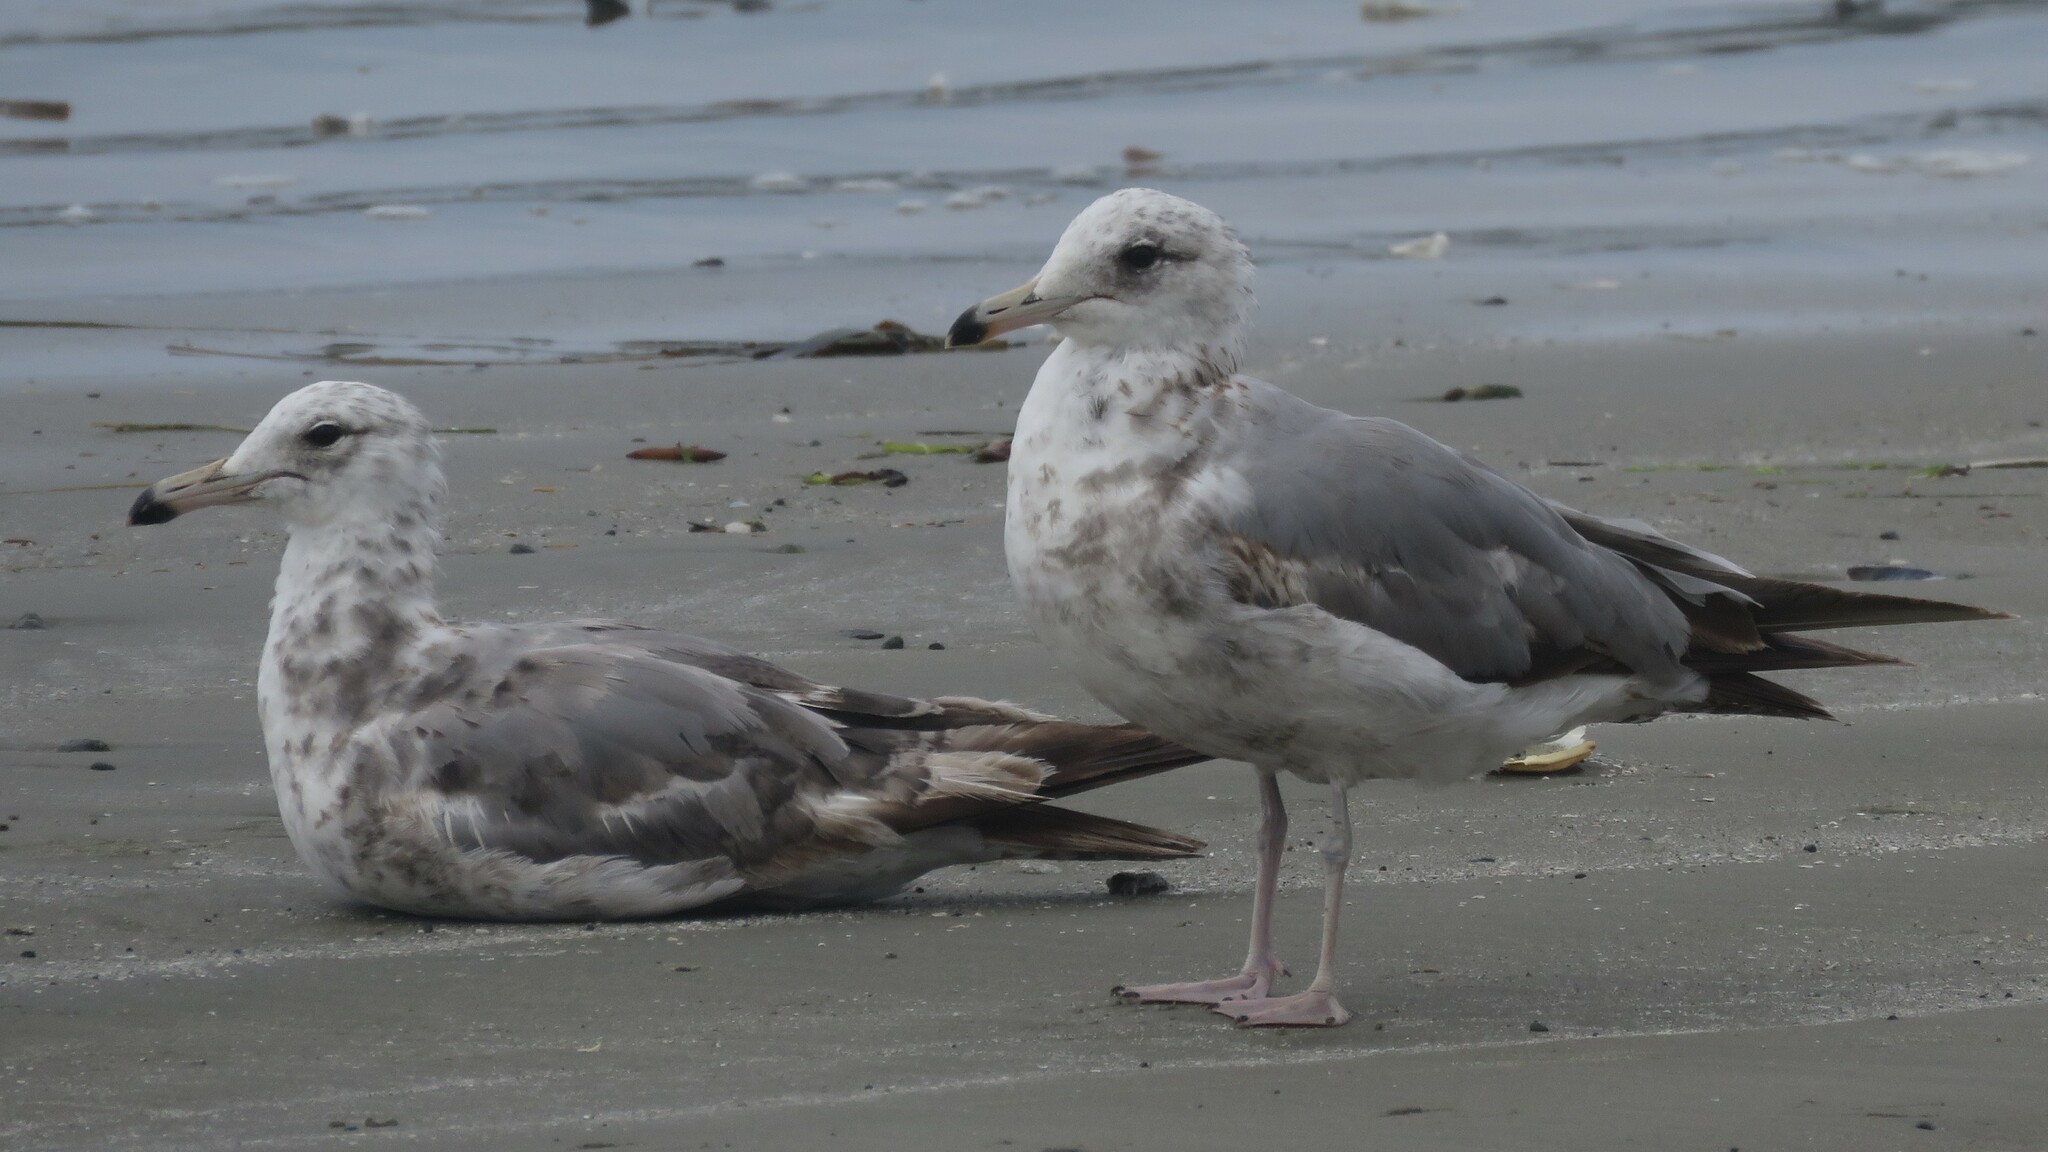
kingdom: Animalia
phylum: Chordata
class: Aves
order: Charadriiformes
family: Laridae
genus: Larus
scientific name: Larus californicus
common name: California gull
